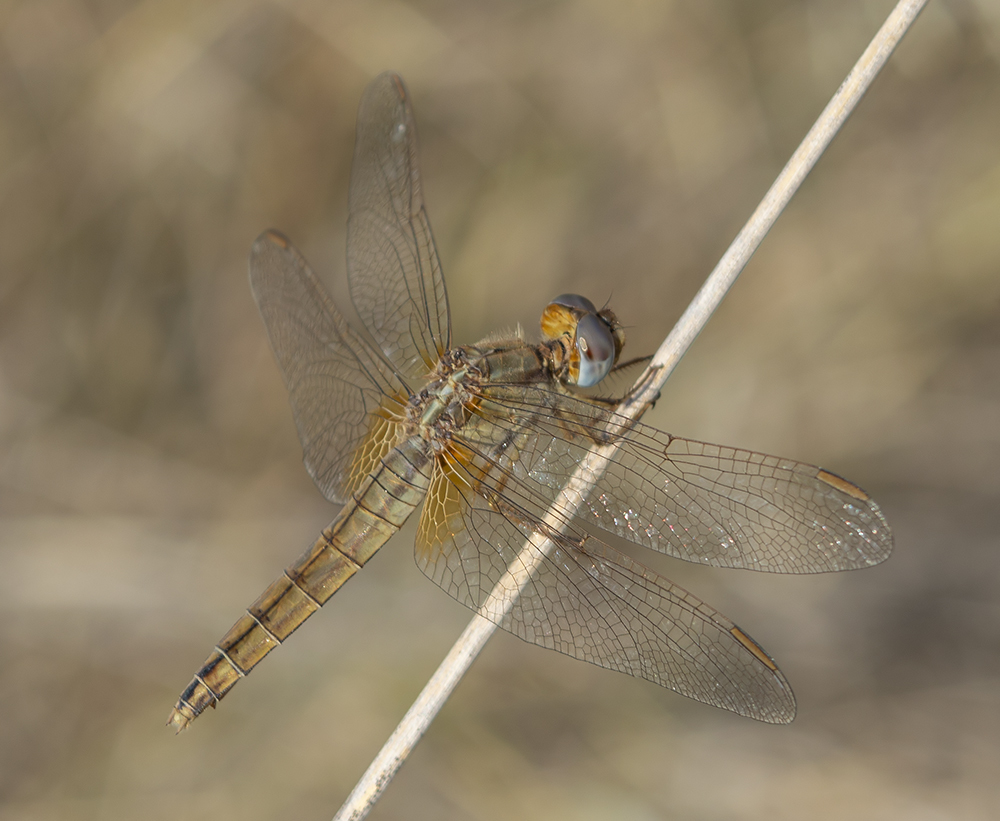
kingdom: Animalia
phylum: Arthropoda
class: Insecta
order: Odonata
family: Libellulidae
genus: Crocothemis
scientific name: Crocothemis erythraea
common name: Scarlet dragonfly
